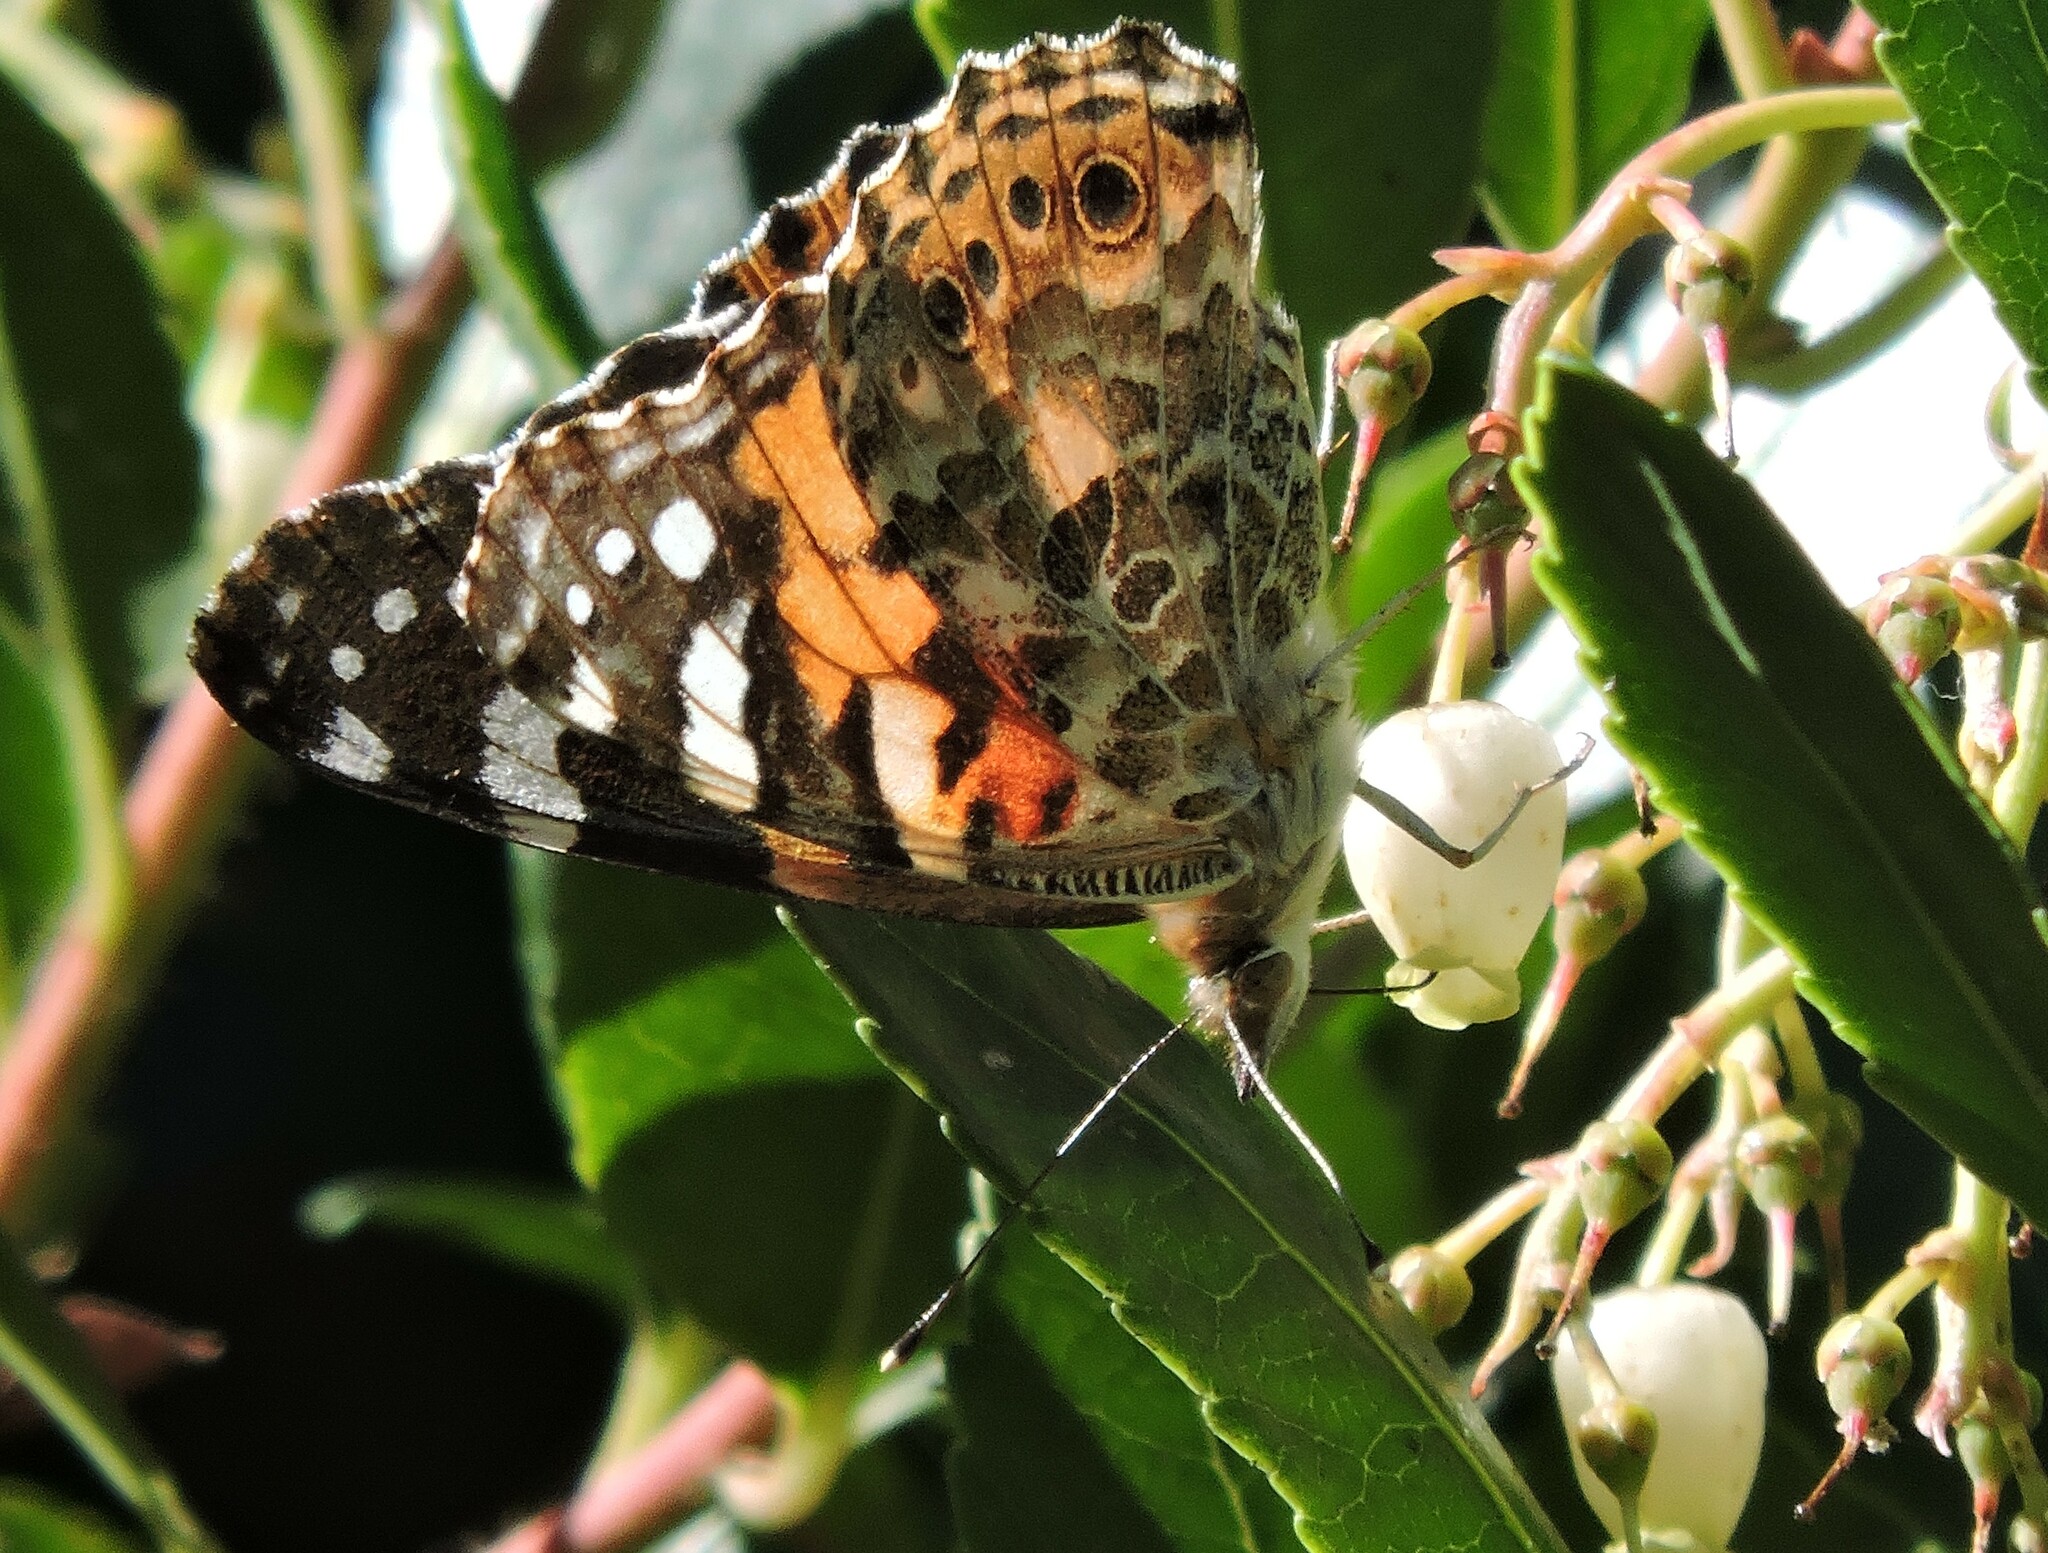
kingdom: Animalia
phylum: Arthropoda
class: Insecta
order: Lepidoptera
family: Nymphalidae
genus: Vanessa
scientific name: Vanessa cardui
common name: Painted lady
